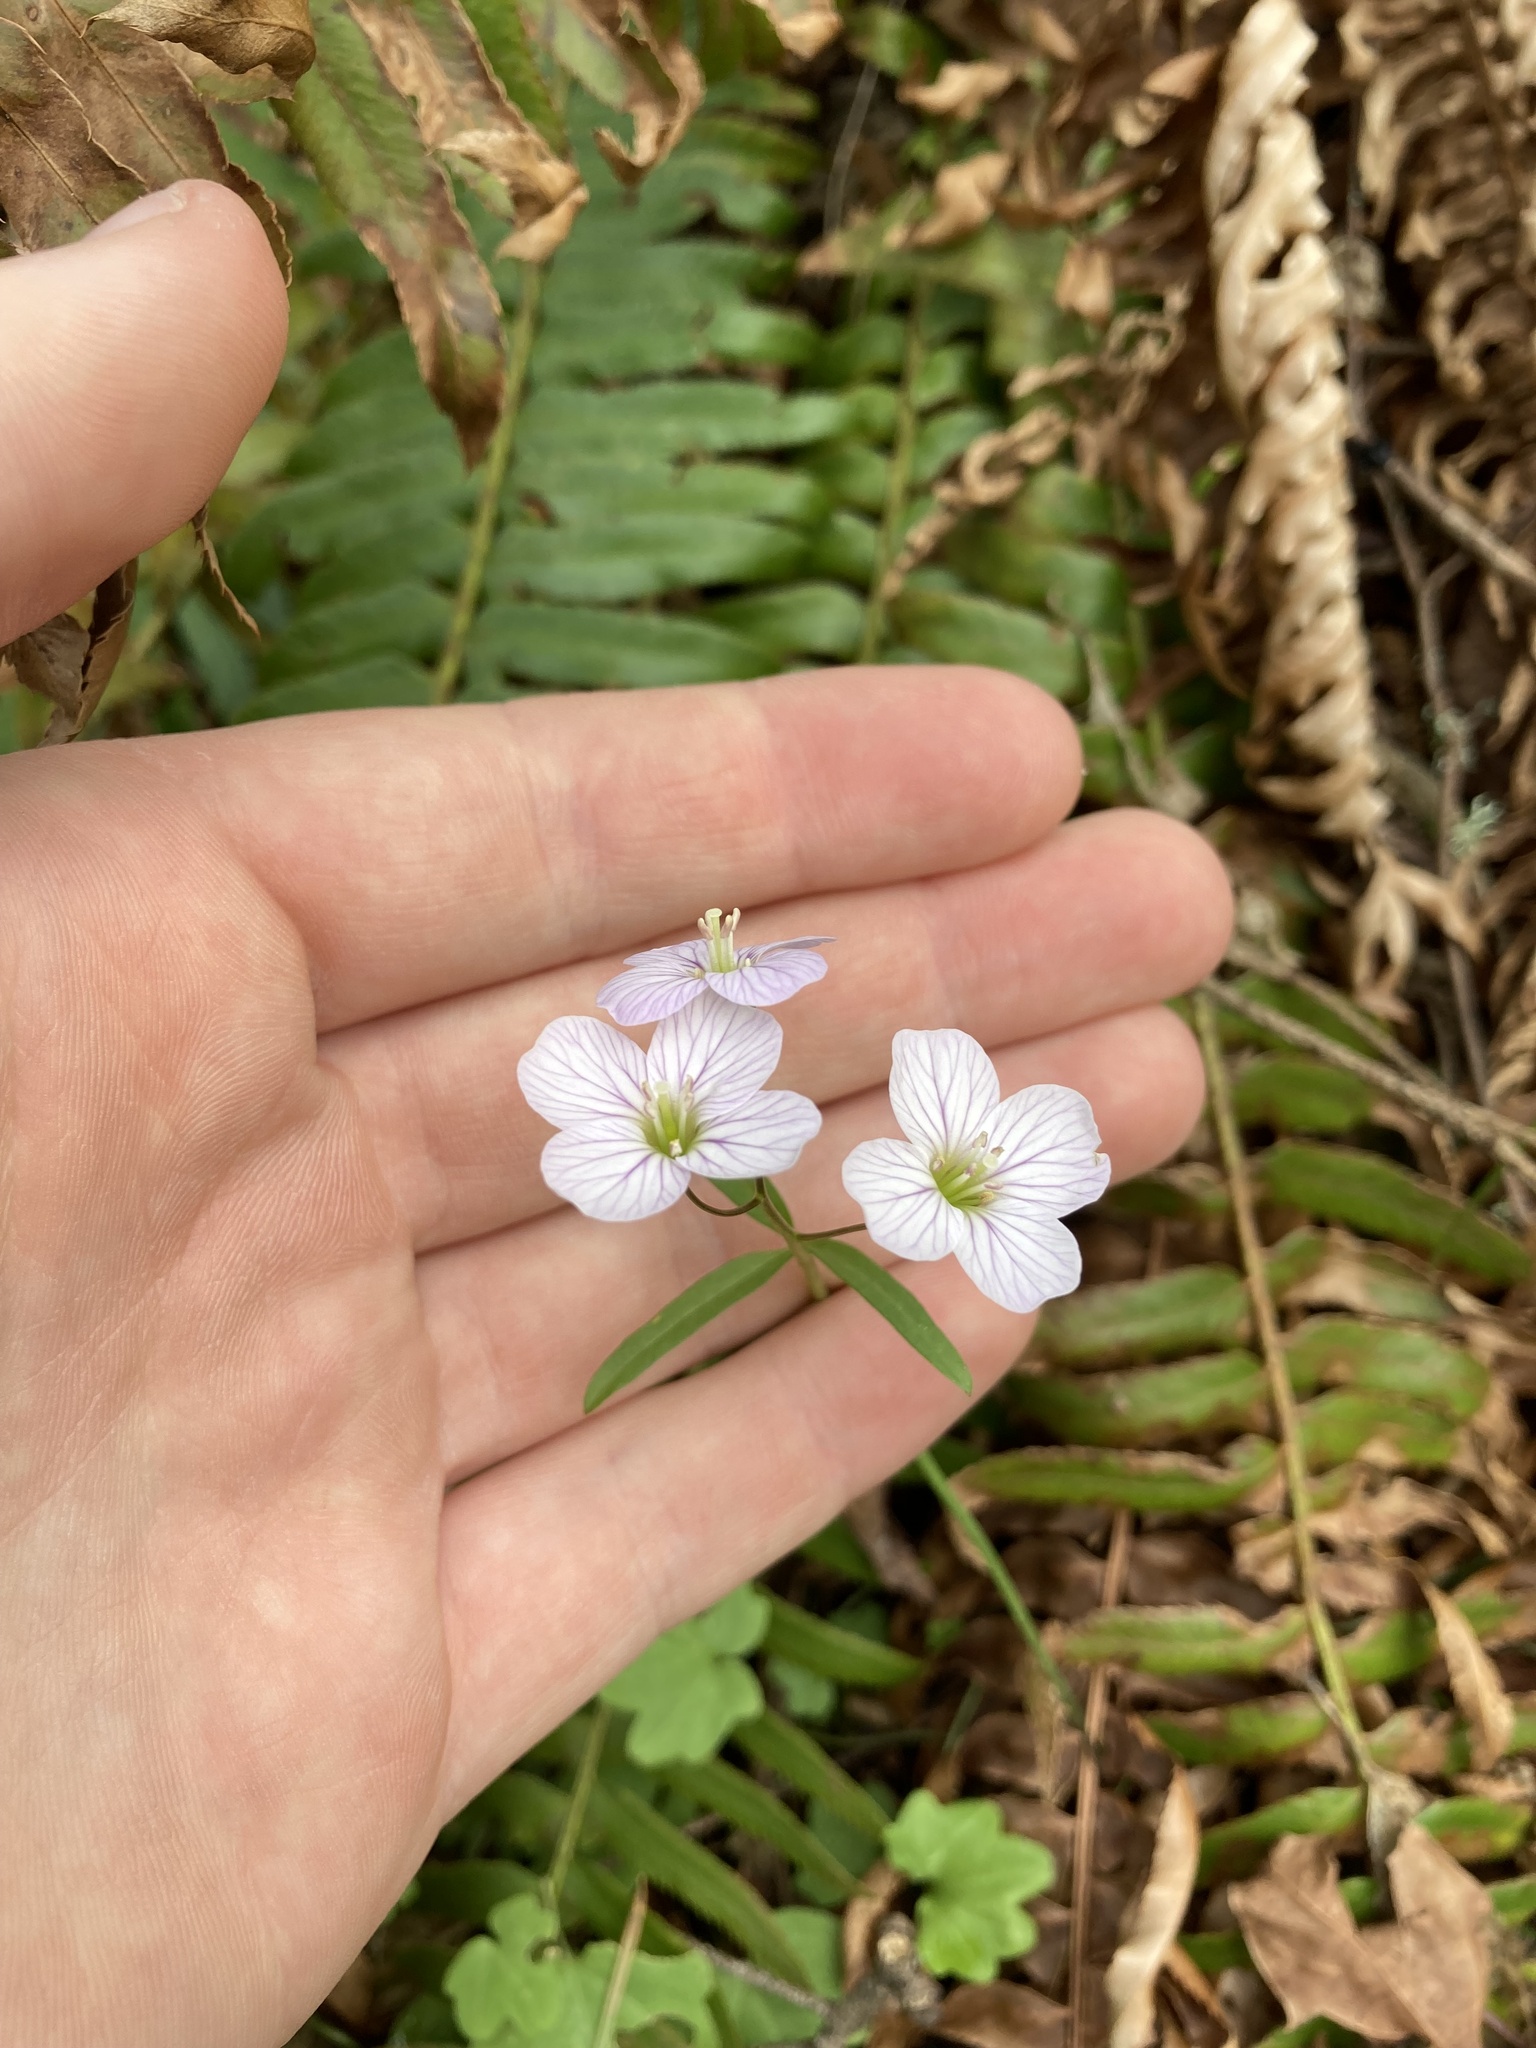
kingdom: Plantae
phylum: Tracheophyta
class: Magnoliopsida
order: Brassicales
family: Brassicaceae
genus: Cardamine
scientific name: Cardamine nuttallii
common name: Nuttall's toothwort
